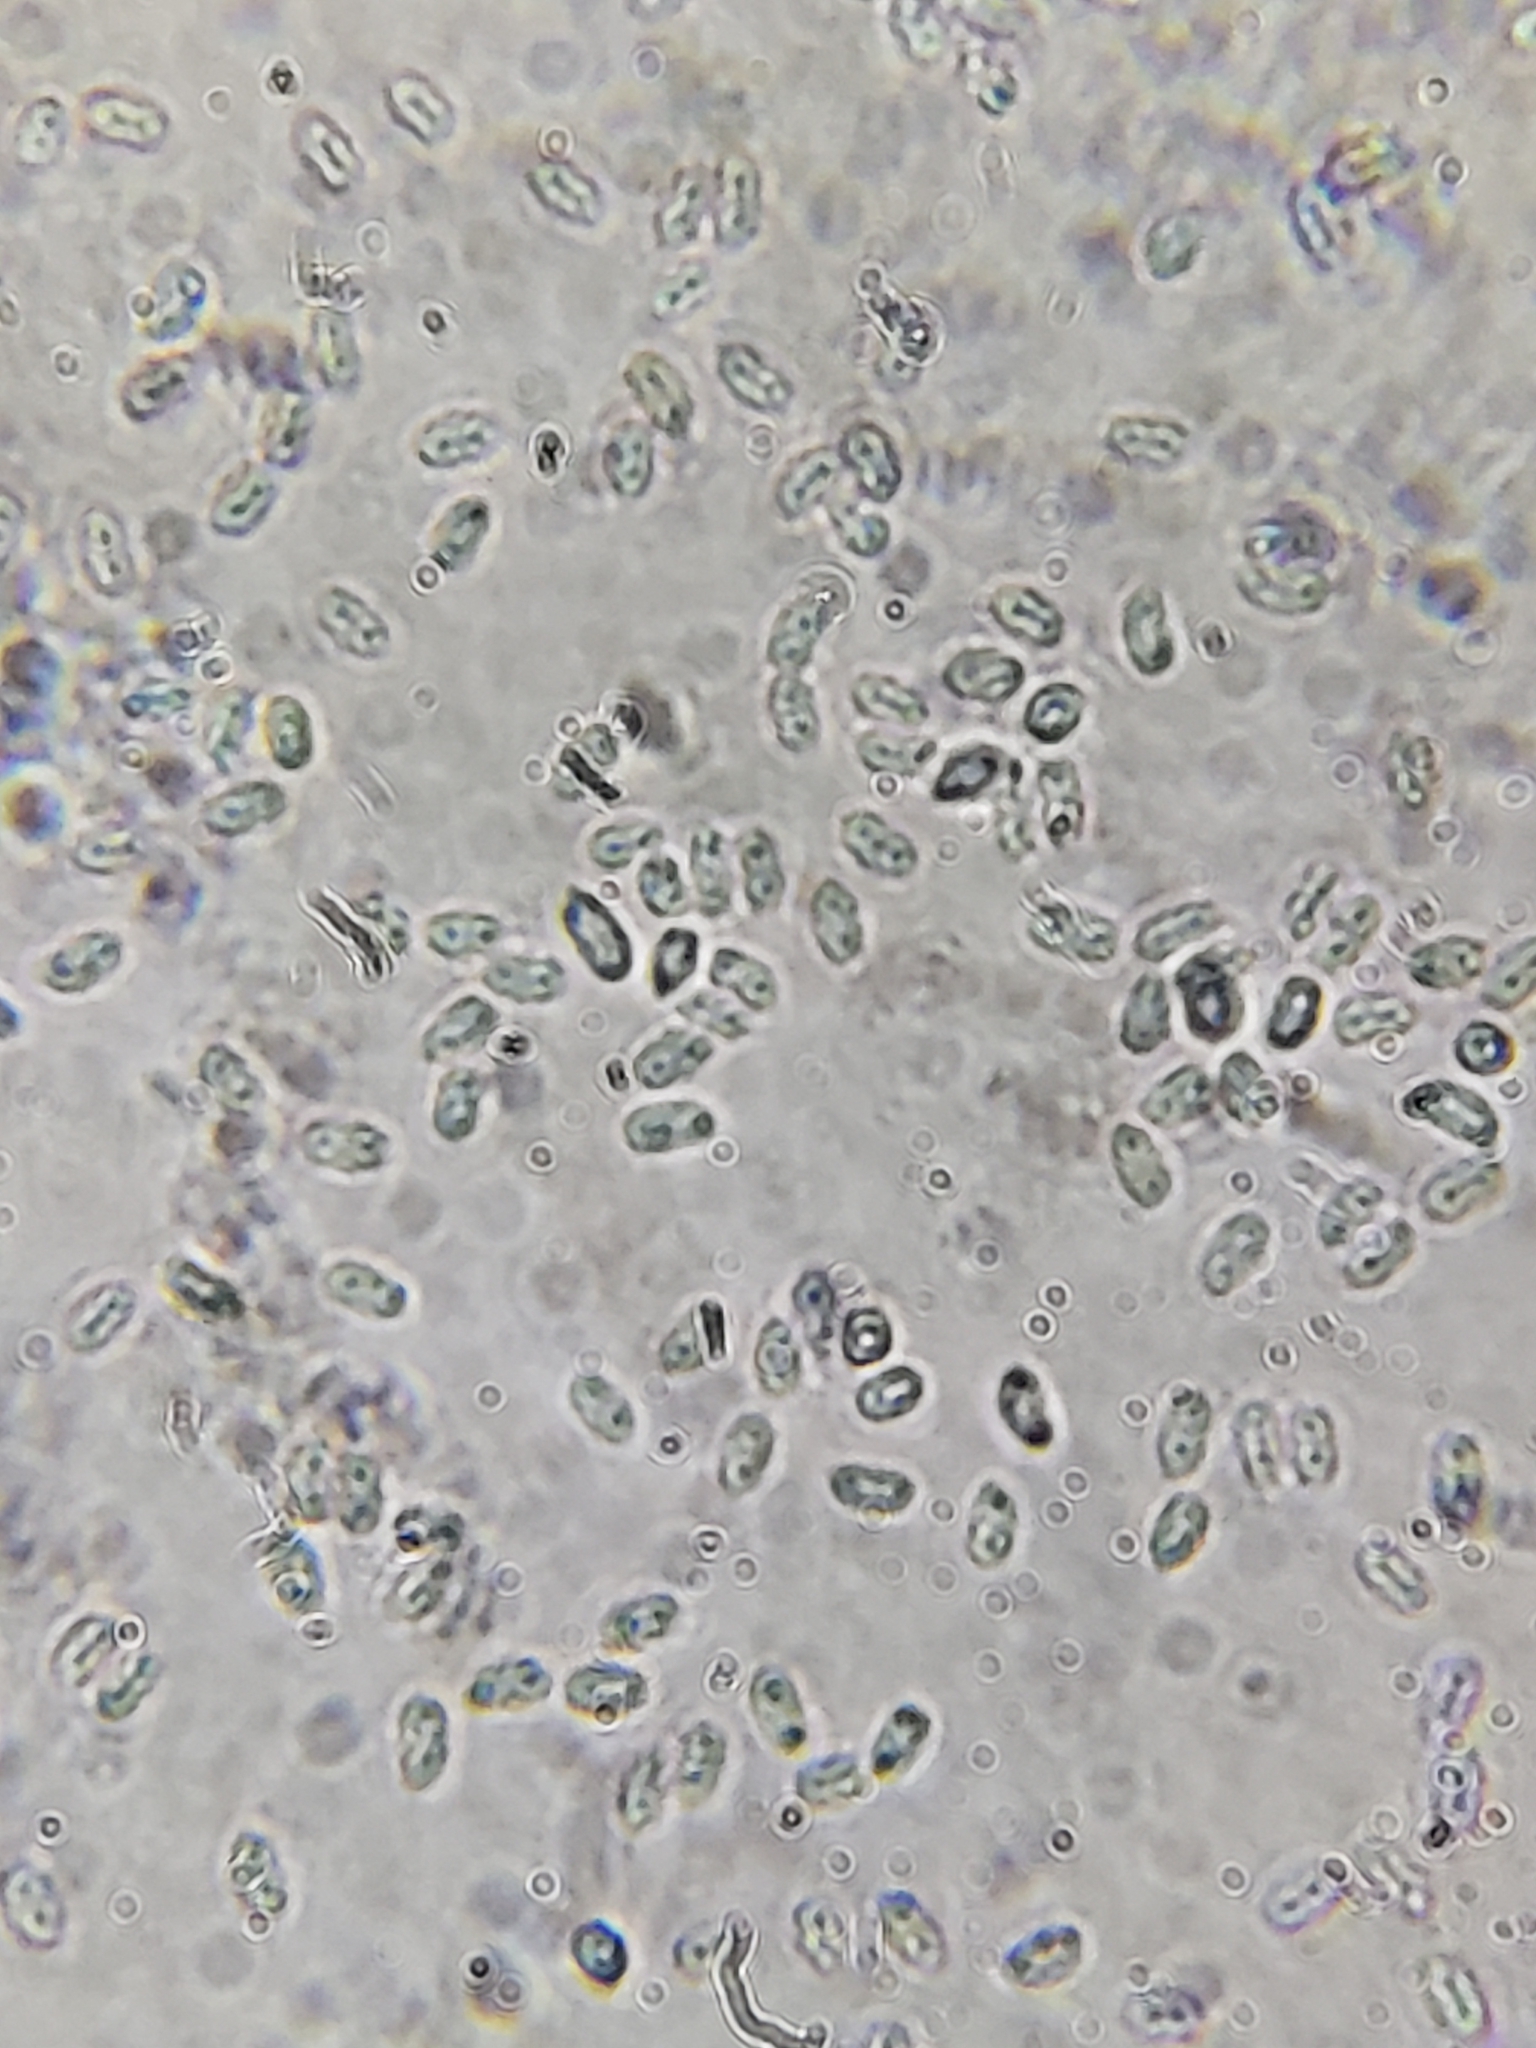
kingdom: Fungi
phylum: Basidiomycota
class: Agaricomycetes
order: Polyporales
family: Irpicaceae
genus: Byssomerulius
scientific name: Byssomerulius incarnatus
